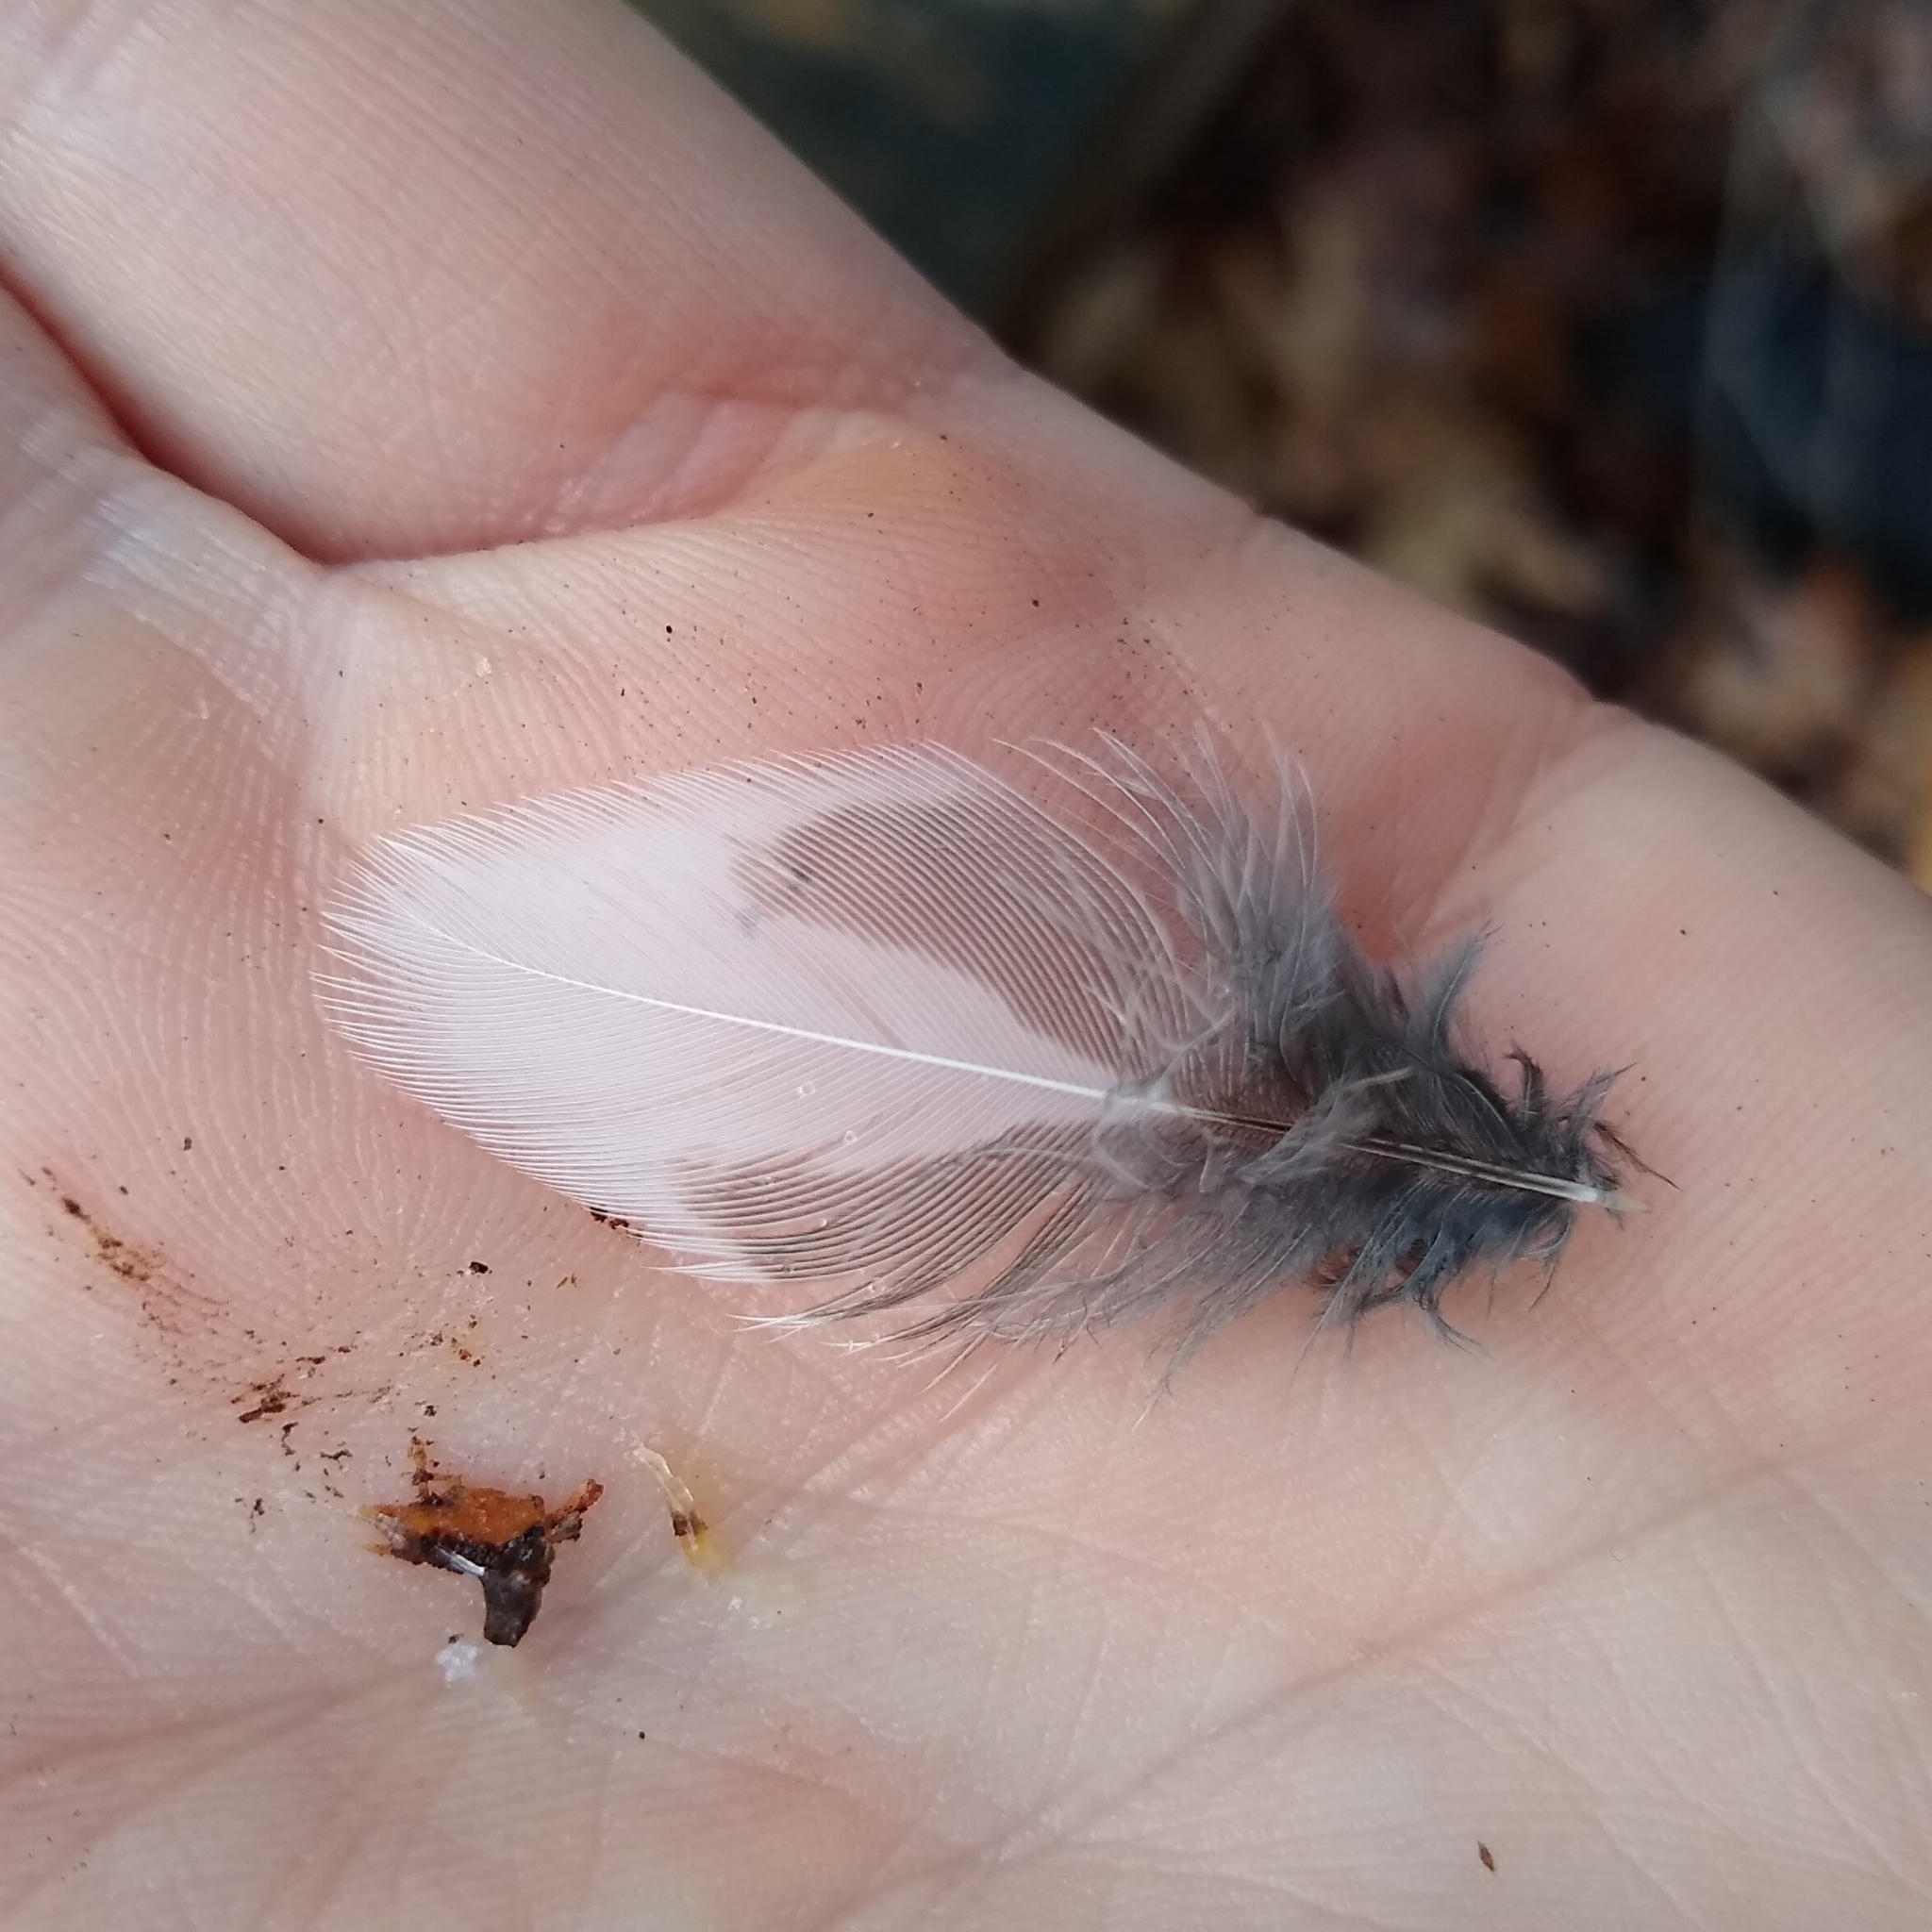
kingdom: Animalia
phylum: Chordata
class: Aves
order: Passeriformes
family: Turdidae
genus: Turdus
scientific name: Turdus migratorius
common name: American robin
